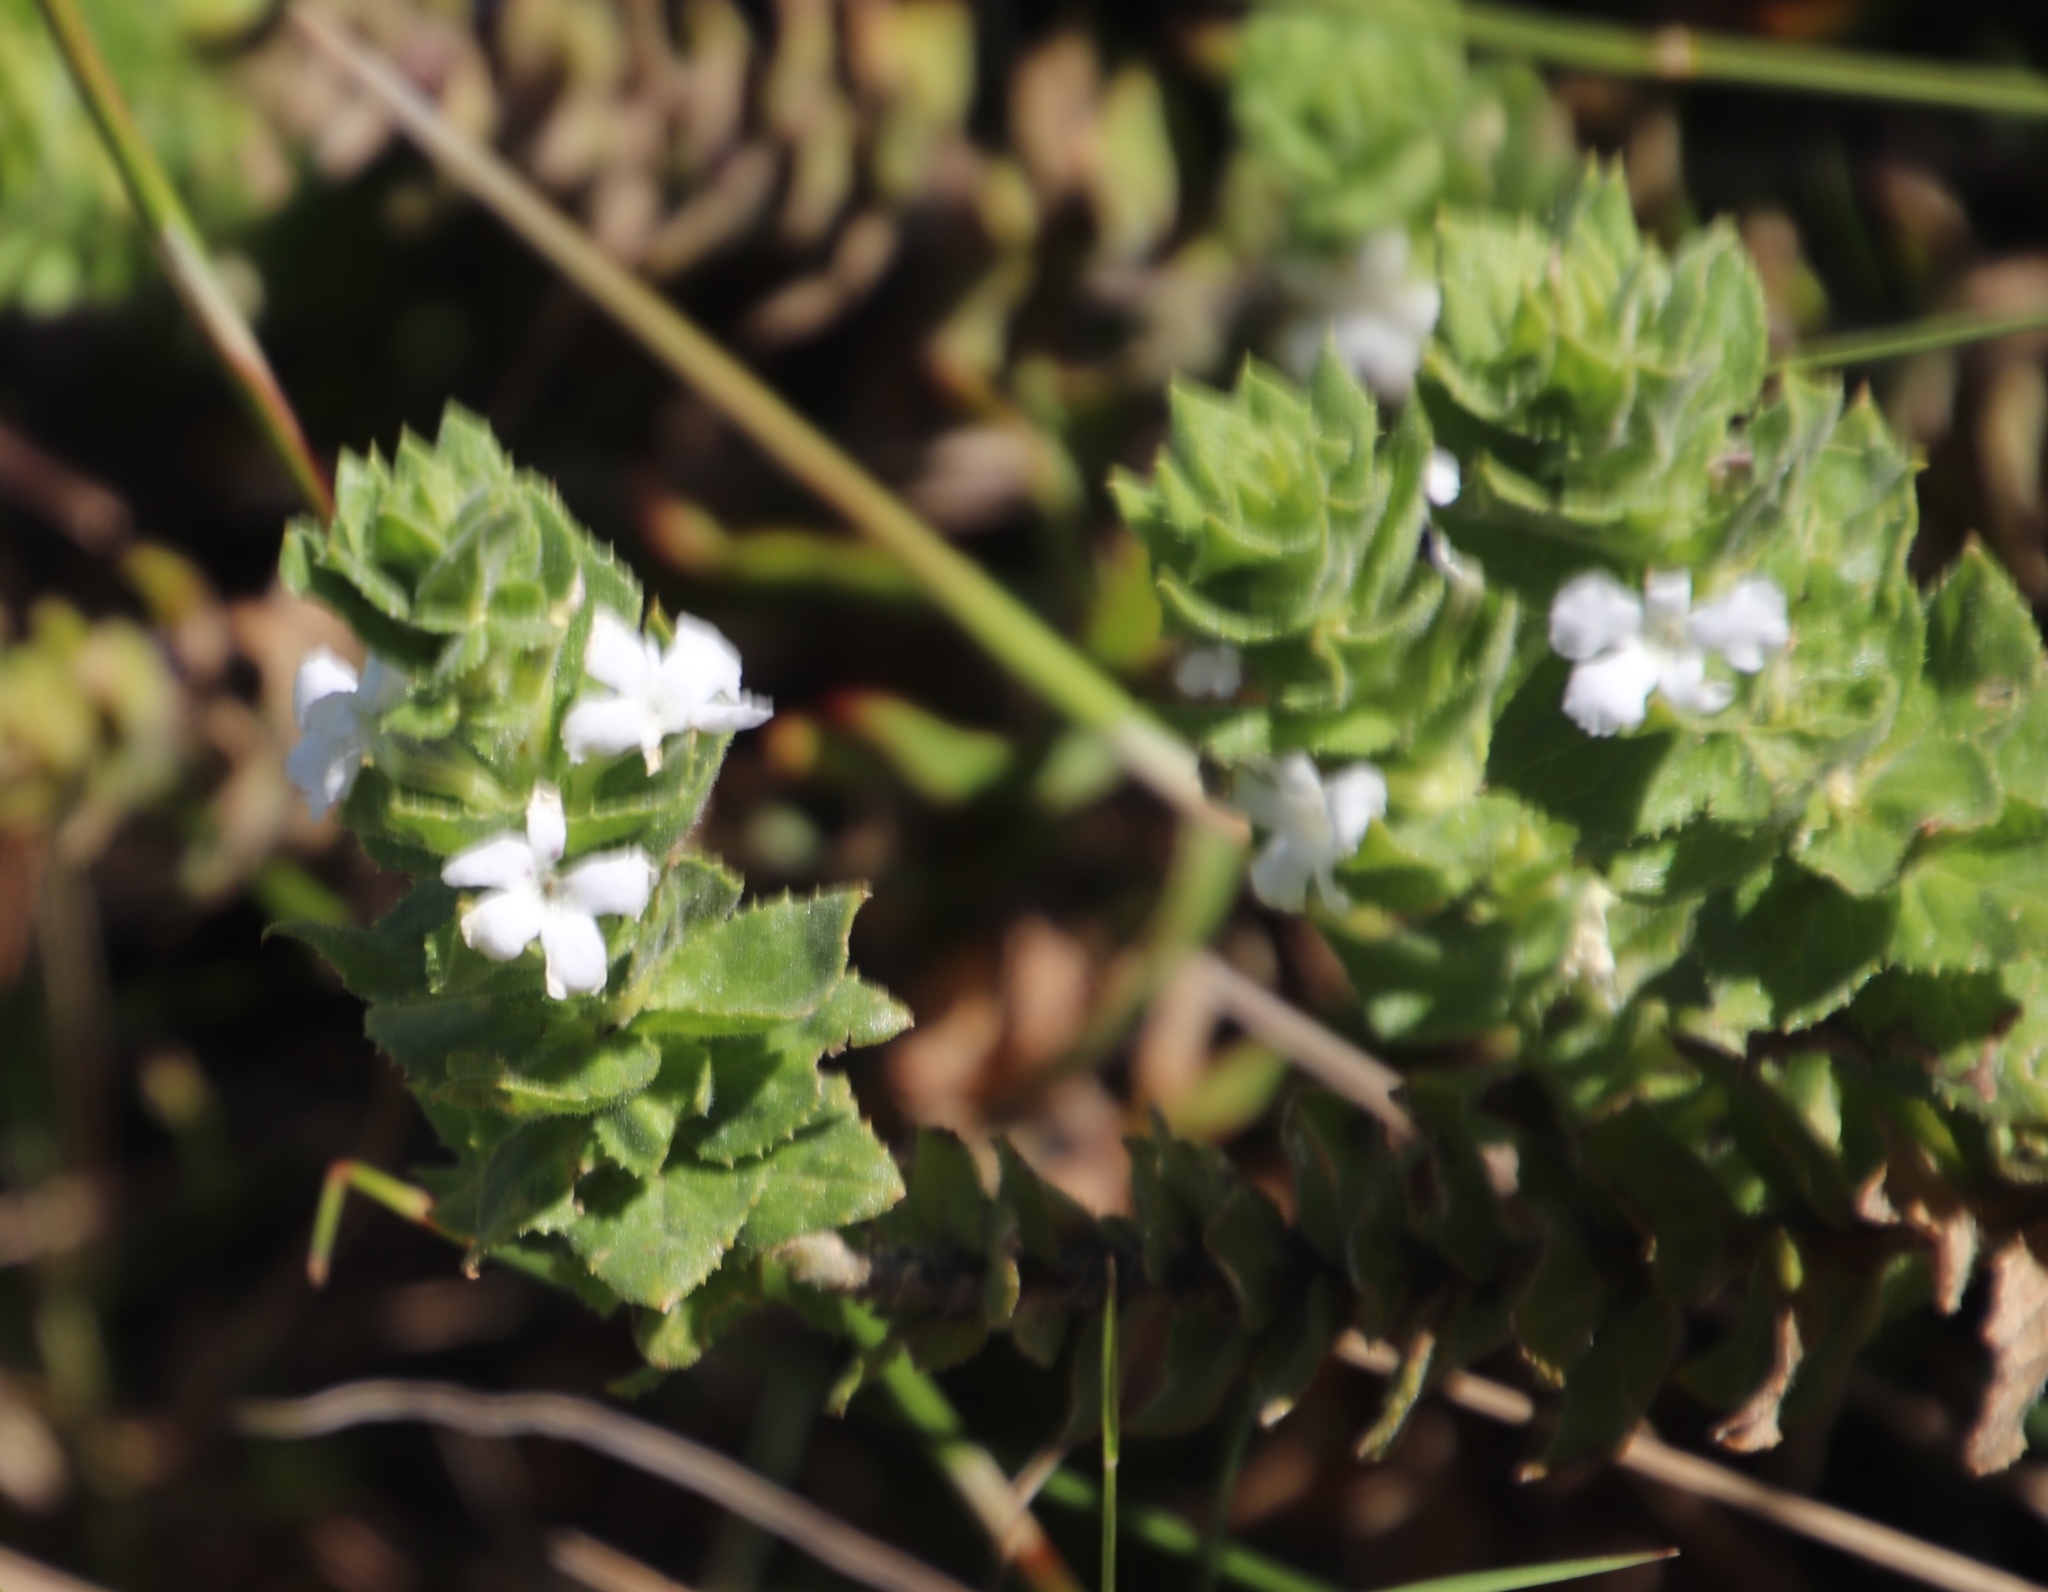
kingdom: Plantae
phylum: Tracheophyta
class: Magnoliopsida
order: Lamiales
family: Scrophulariaceae
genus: Oftia
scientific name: Oftia africana
